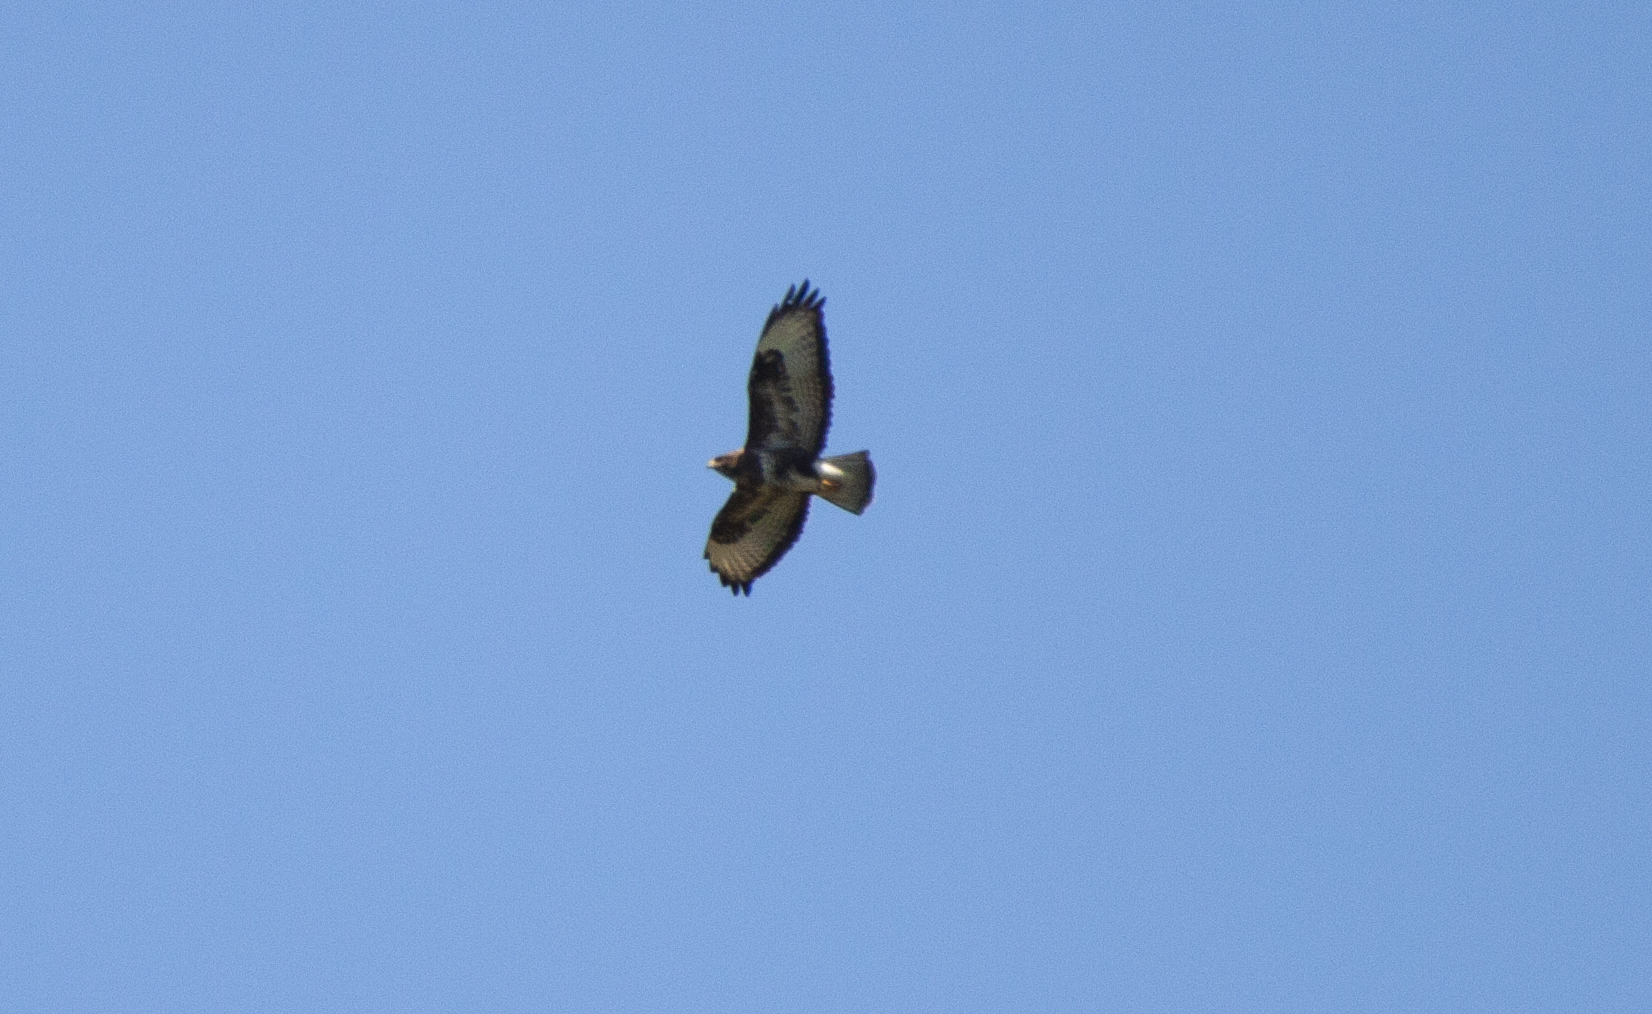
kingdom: Animalia
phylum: Chordata
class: Aves
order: Accipitriformes
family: Accipitridae
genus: Buteo
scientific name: Buteo buteo
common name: Common buzzard
